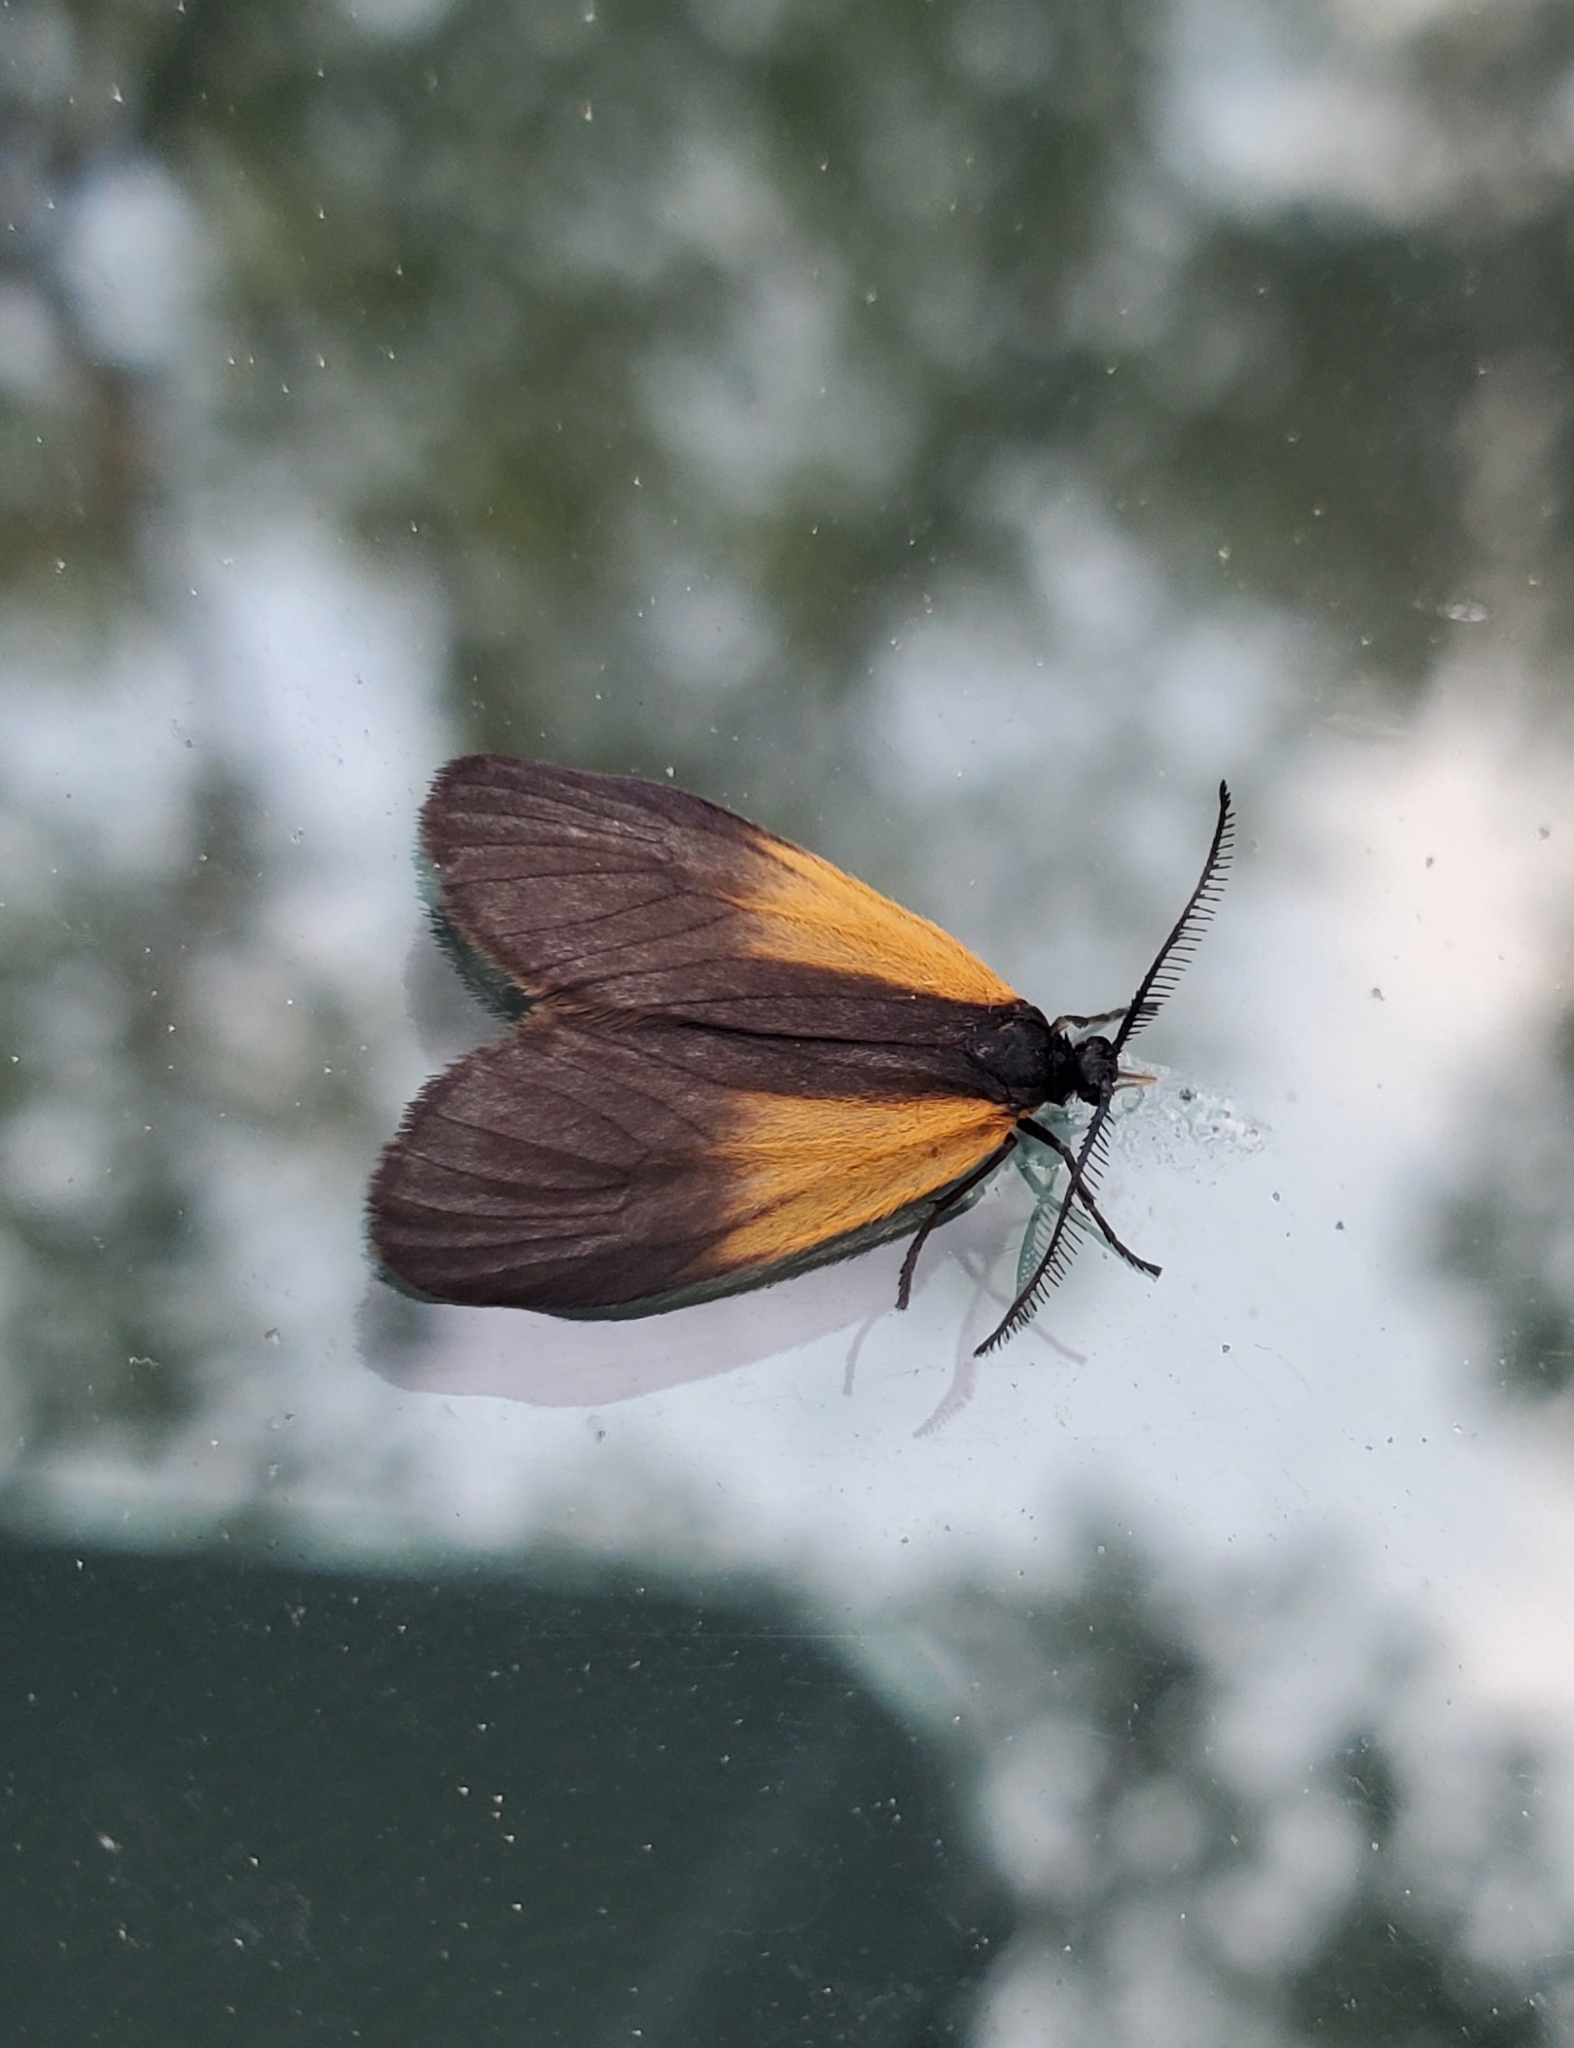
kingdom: Animalia
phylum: Arthropoda
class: Insecta
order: Lepidoptera
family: Zygaenidae
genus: Malthaca
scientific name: Malthaca dimidiata
